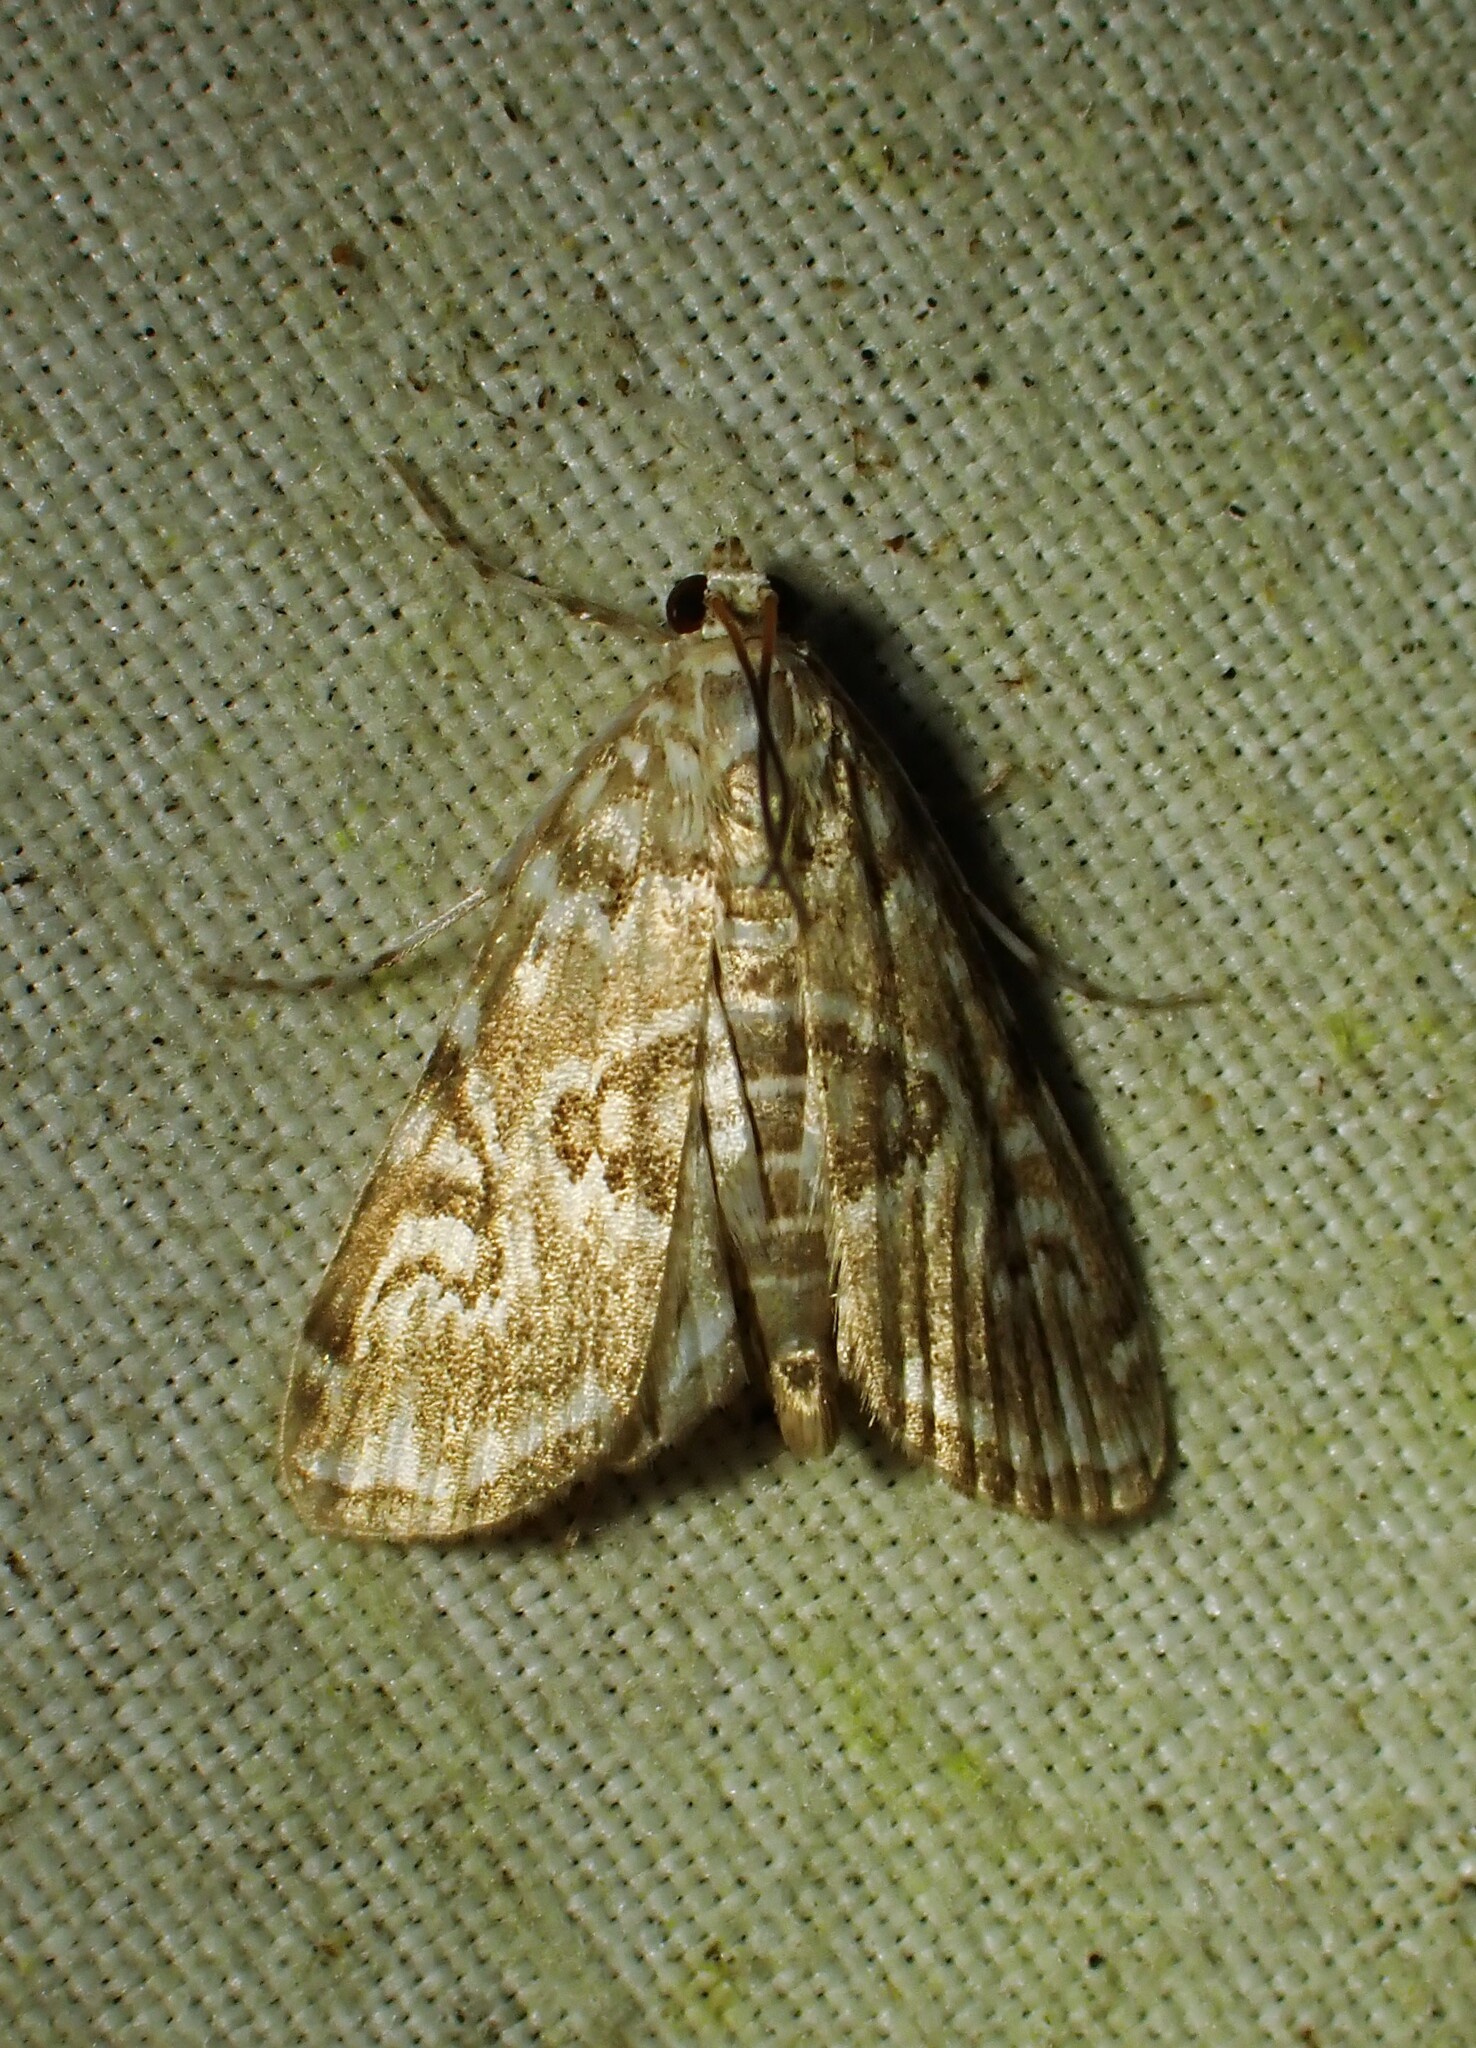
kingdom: Animalia
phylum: Arthropoda
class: Insecta
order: Lepidoptera
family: Crambidae
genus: Elophila
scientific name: Elophila gyralis
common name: Waterlily borer moth
